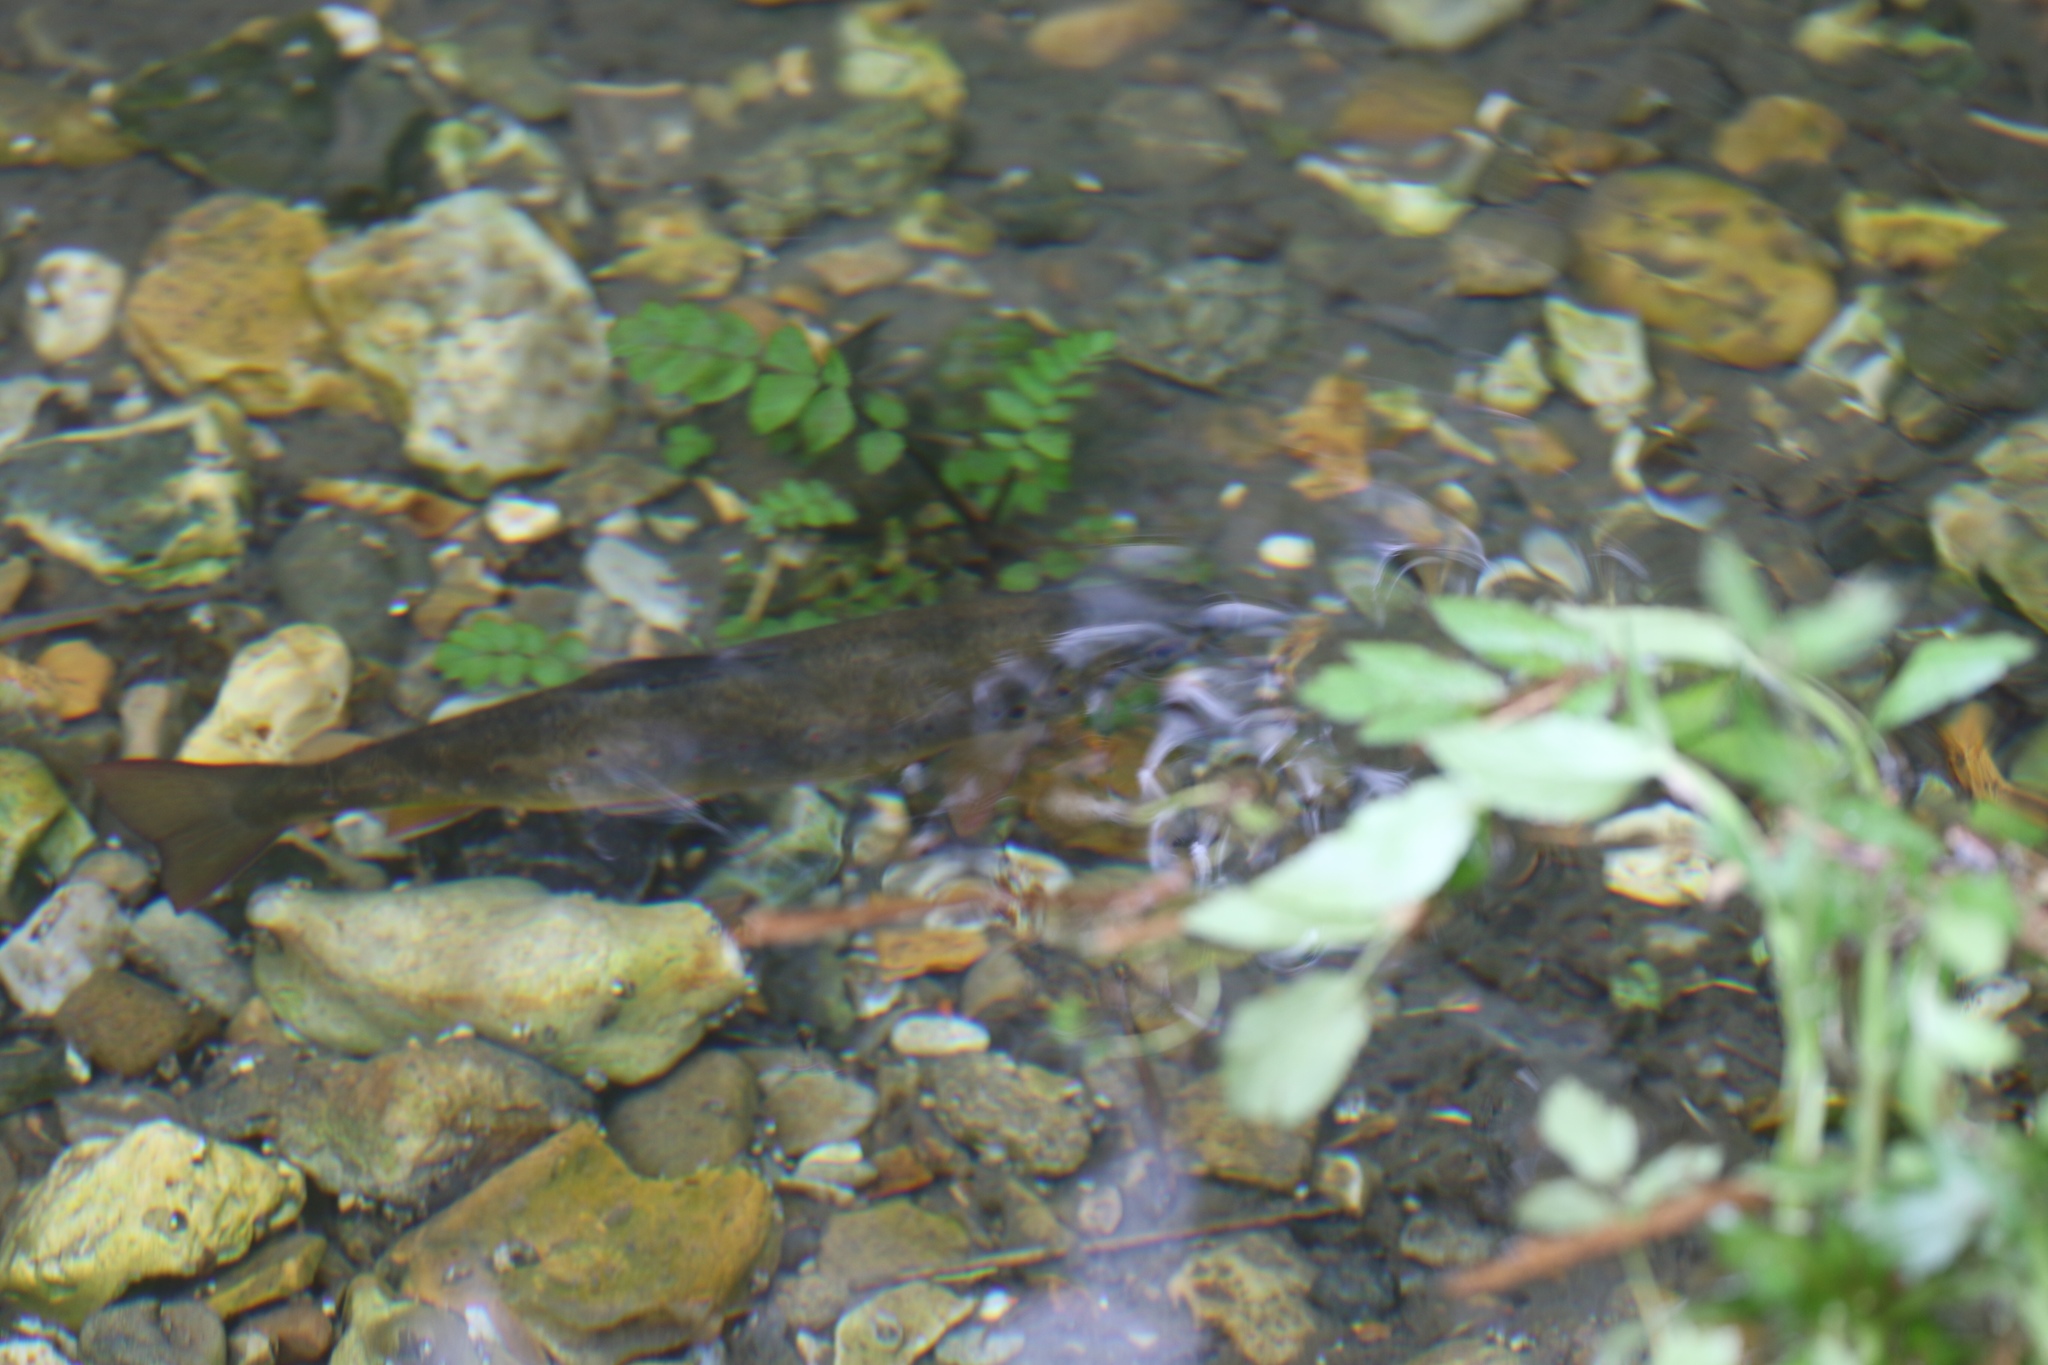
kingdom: Animalia
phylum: Chordata
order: Salmoniformes
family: Salmonidae
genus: Salmo
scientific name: Salmo trutta
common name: Brown trout
